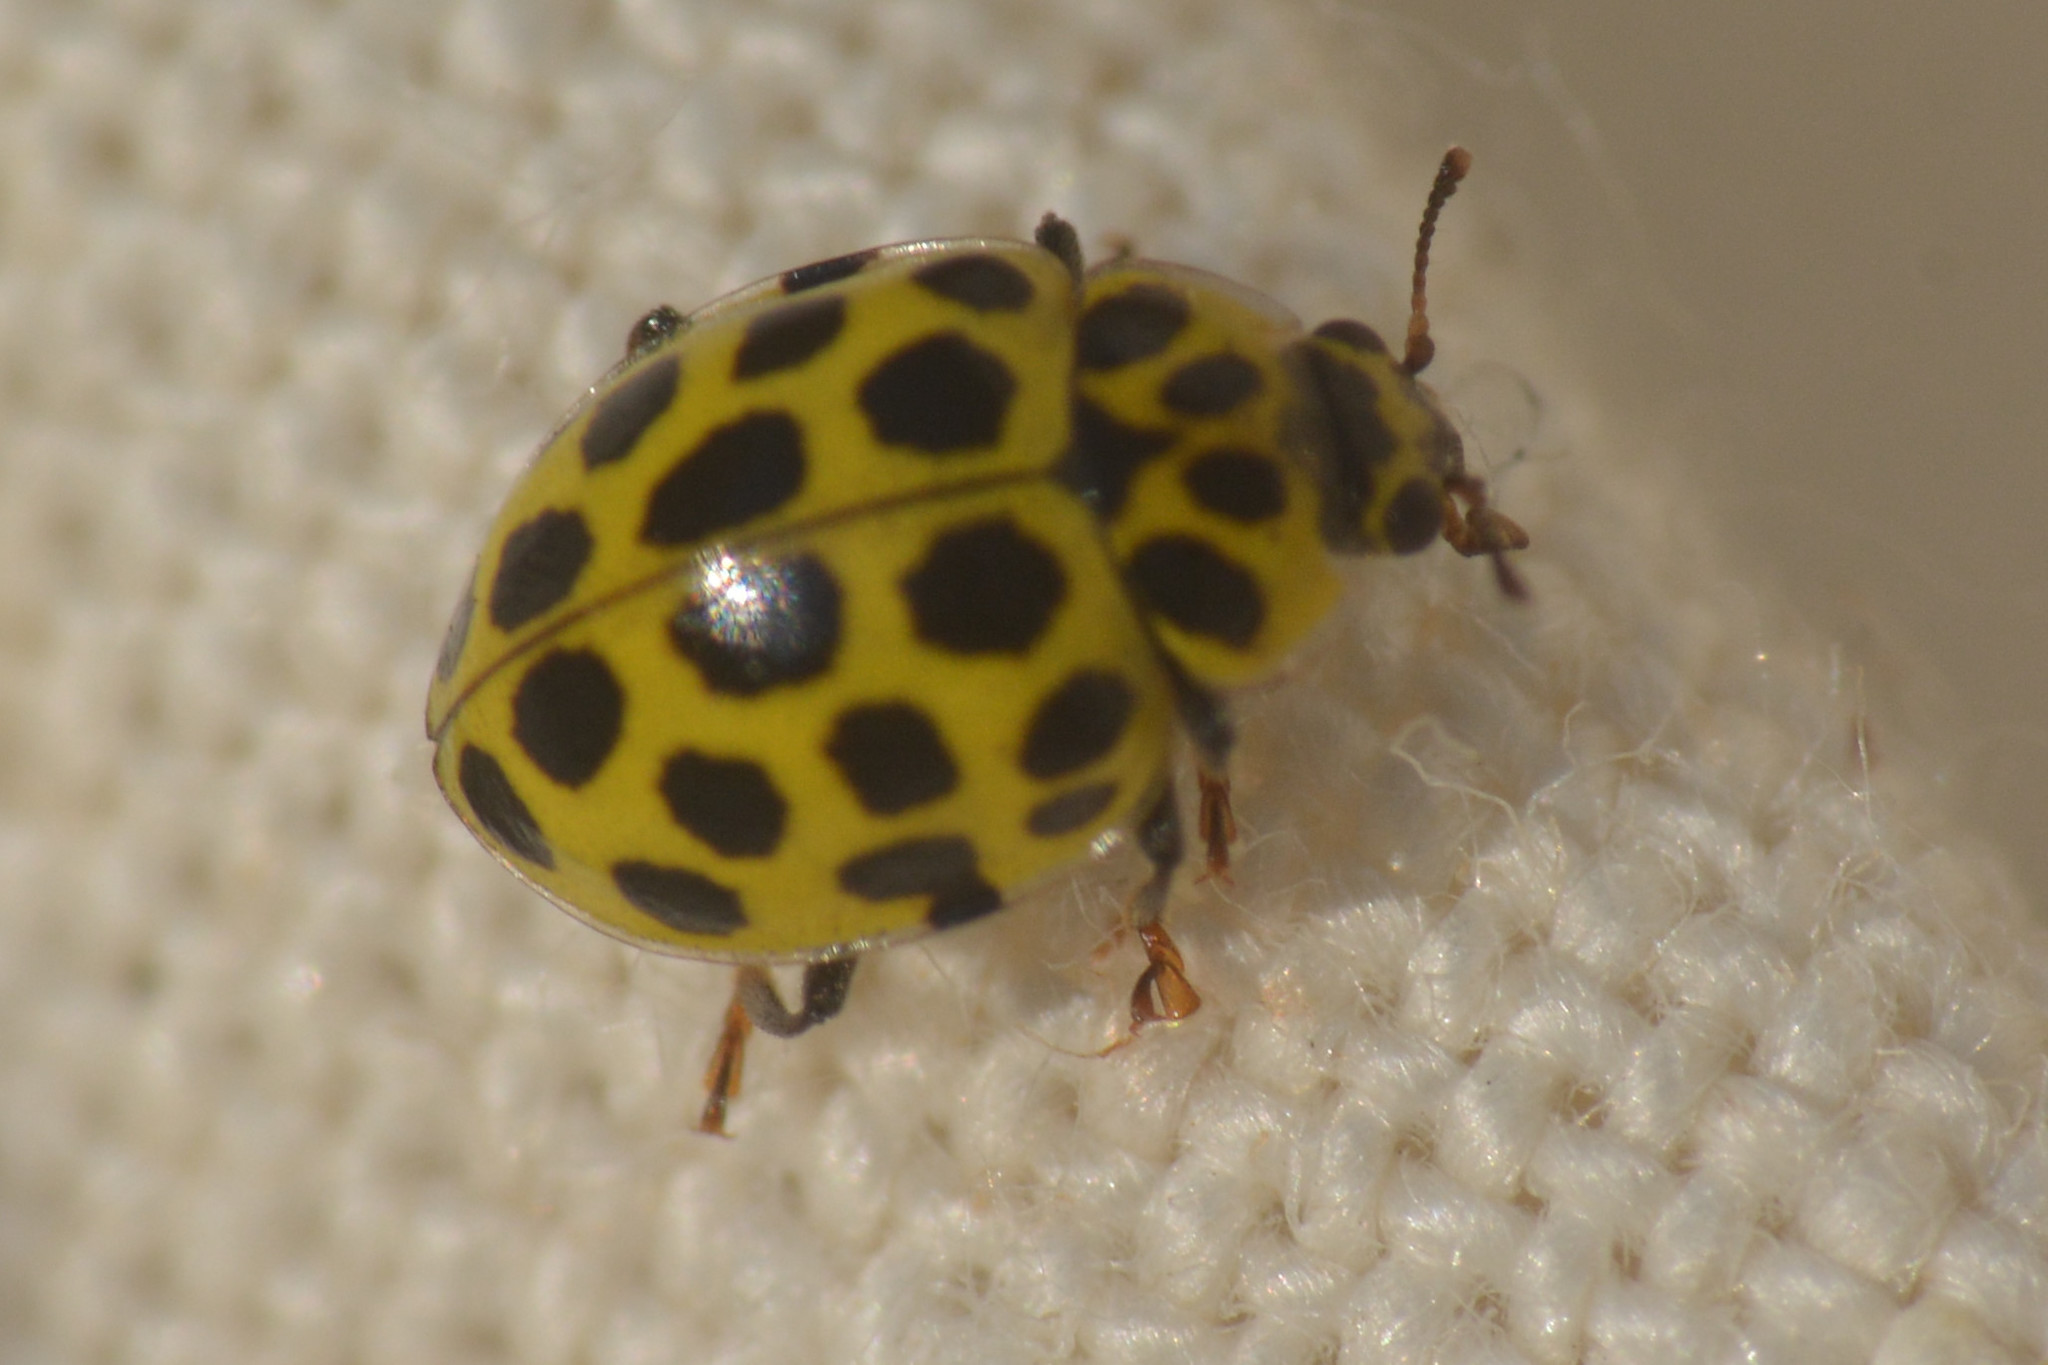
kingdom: Animalia
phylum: Arthropoda
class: Insecta
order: Coleoptera
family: Coccinellidae
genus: Psyllobora
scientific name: Psyllobora vigintiduopunctata
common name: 22-spot ladybird
